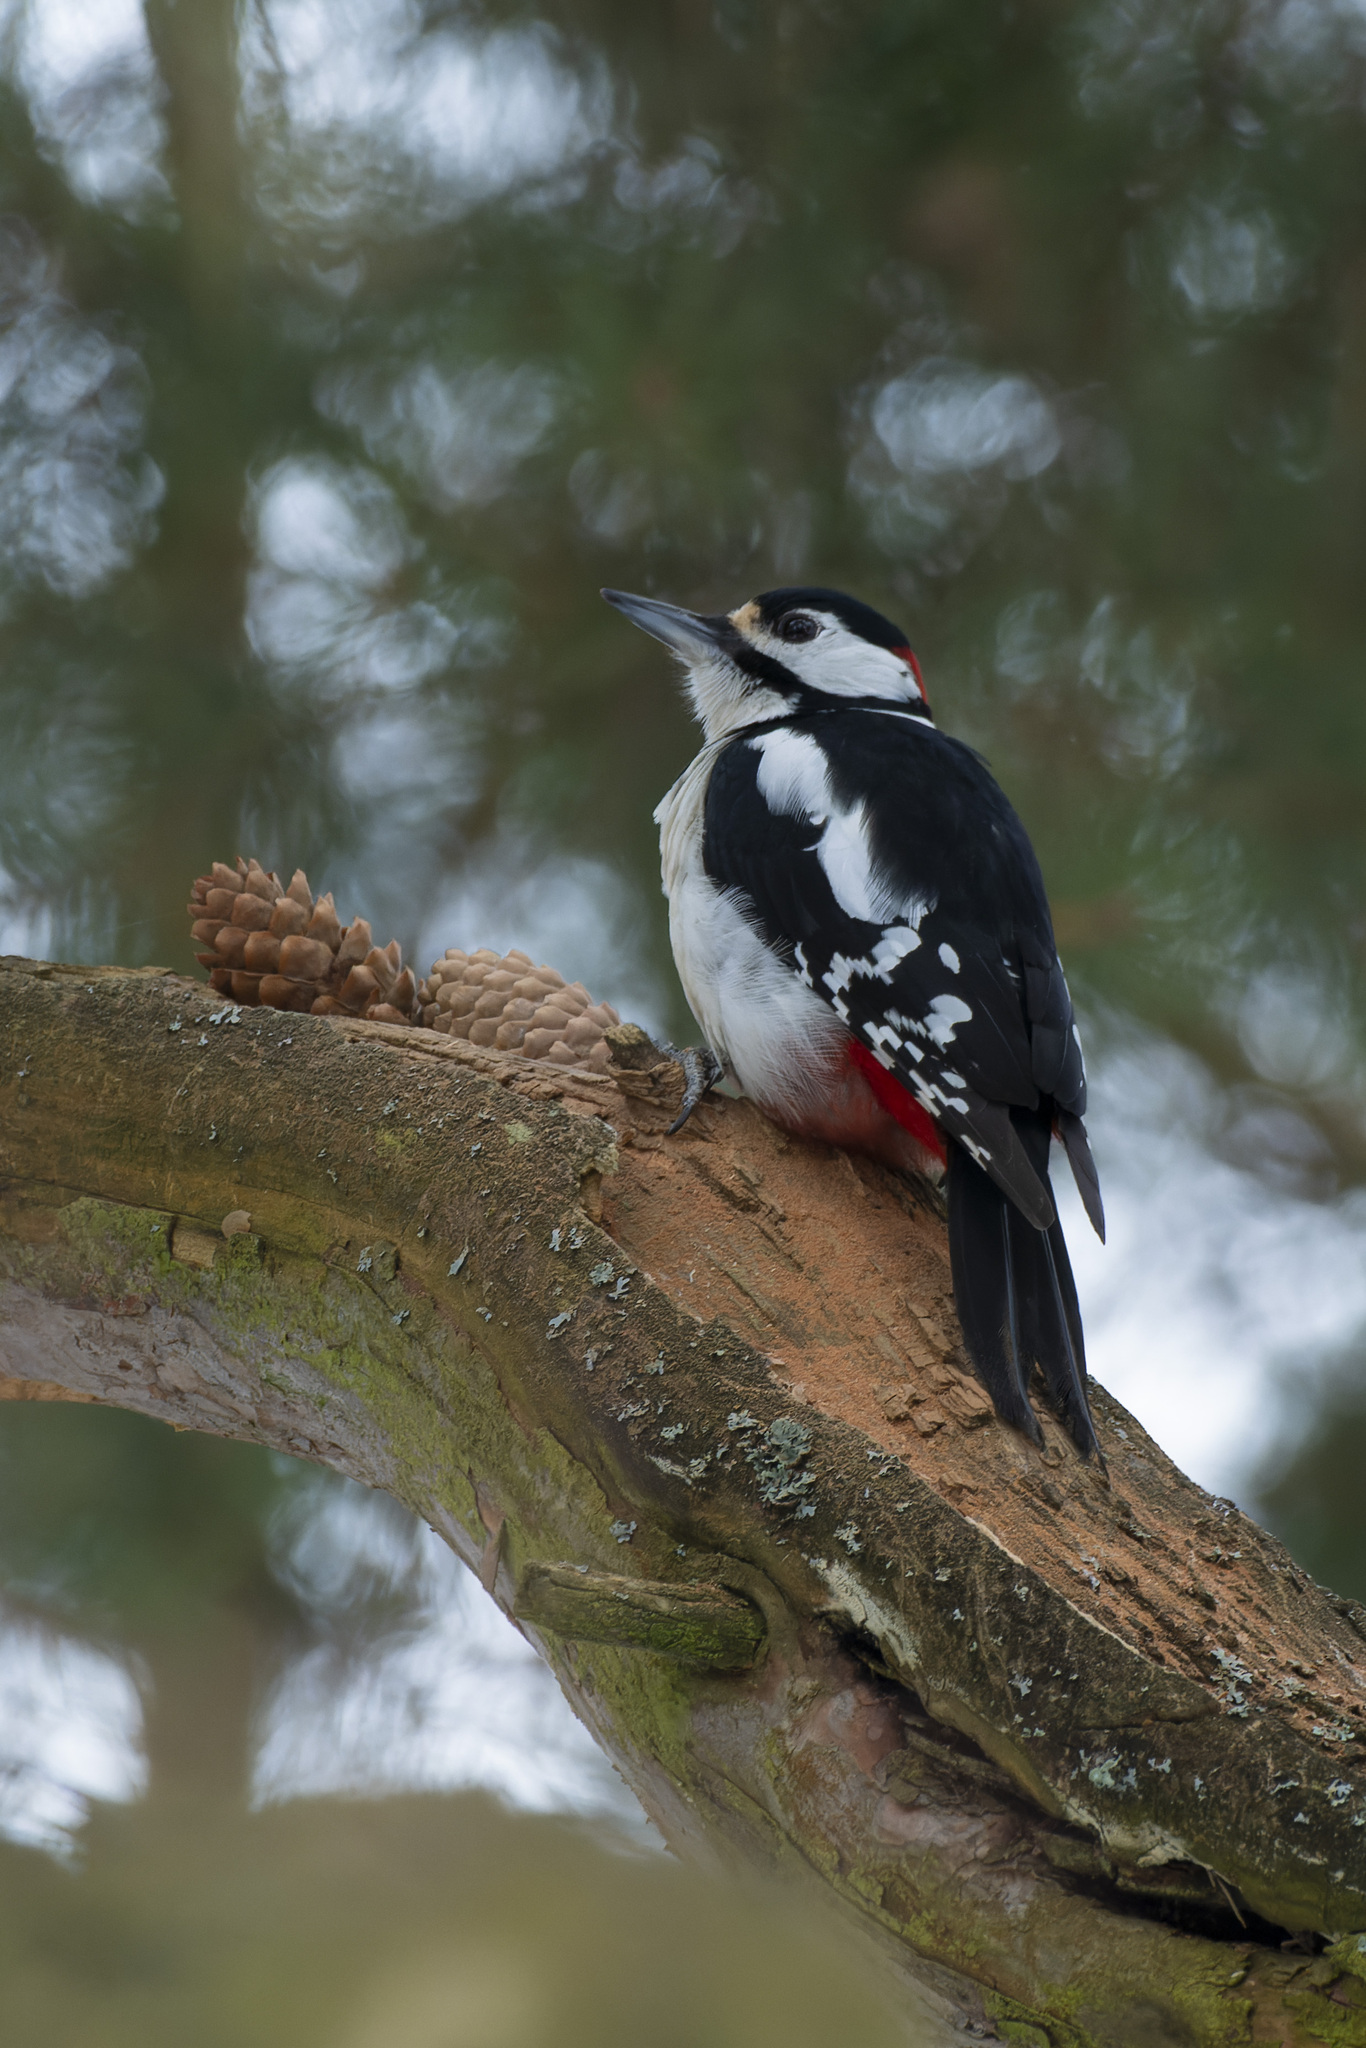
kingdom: Animalia
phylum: Chordata
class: Aves
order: Piciformes
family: Picidae
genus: Dendrocopos
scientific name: Dendrocopos major
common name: Great spotted woodpecker
